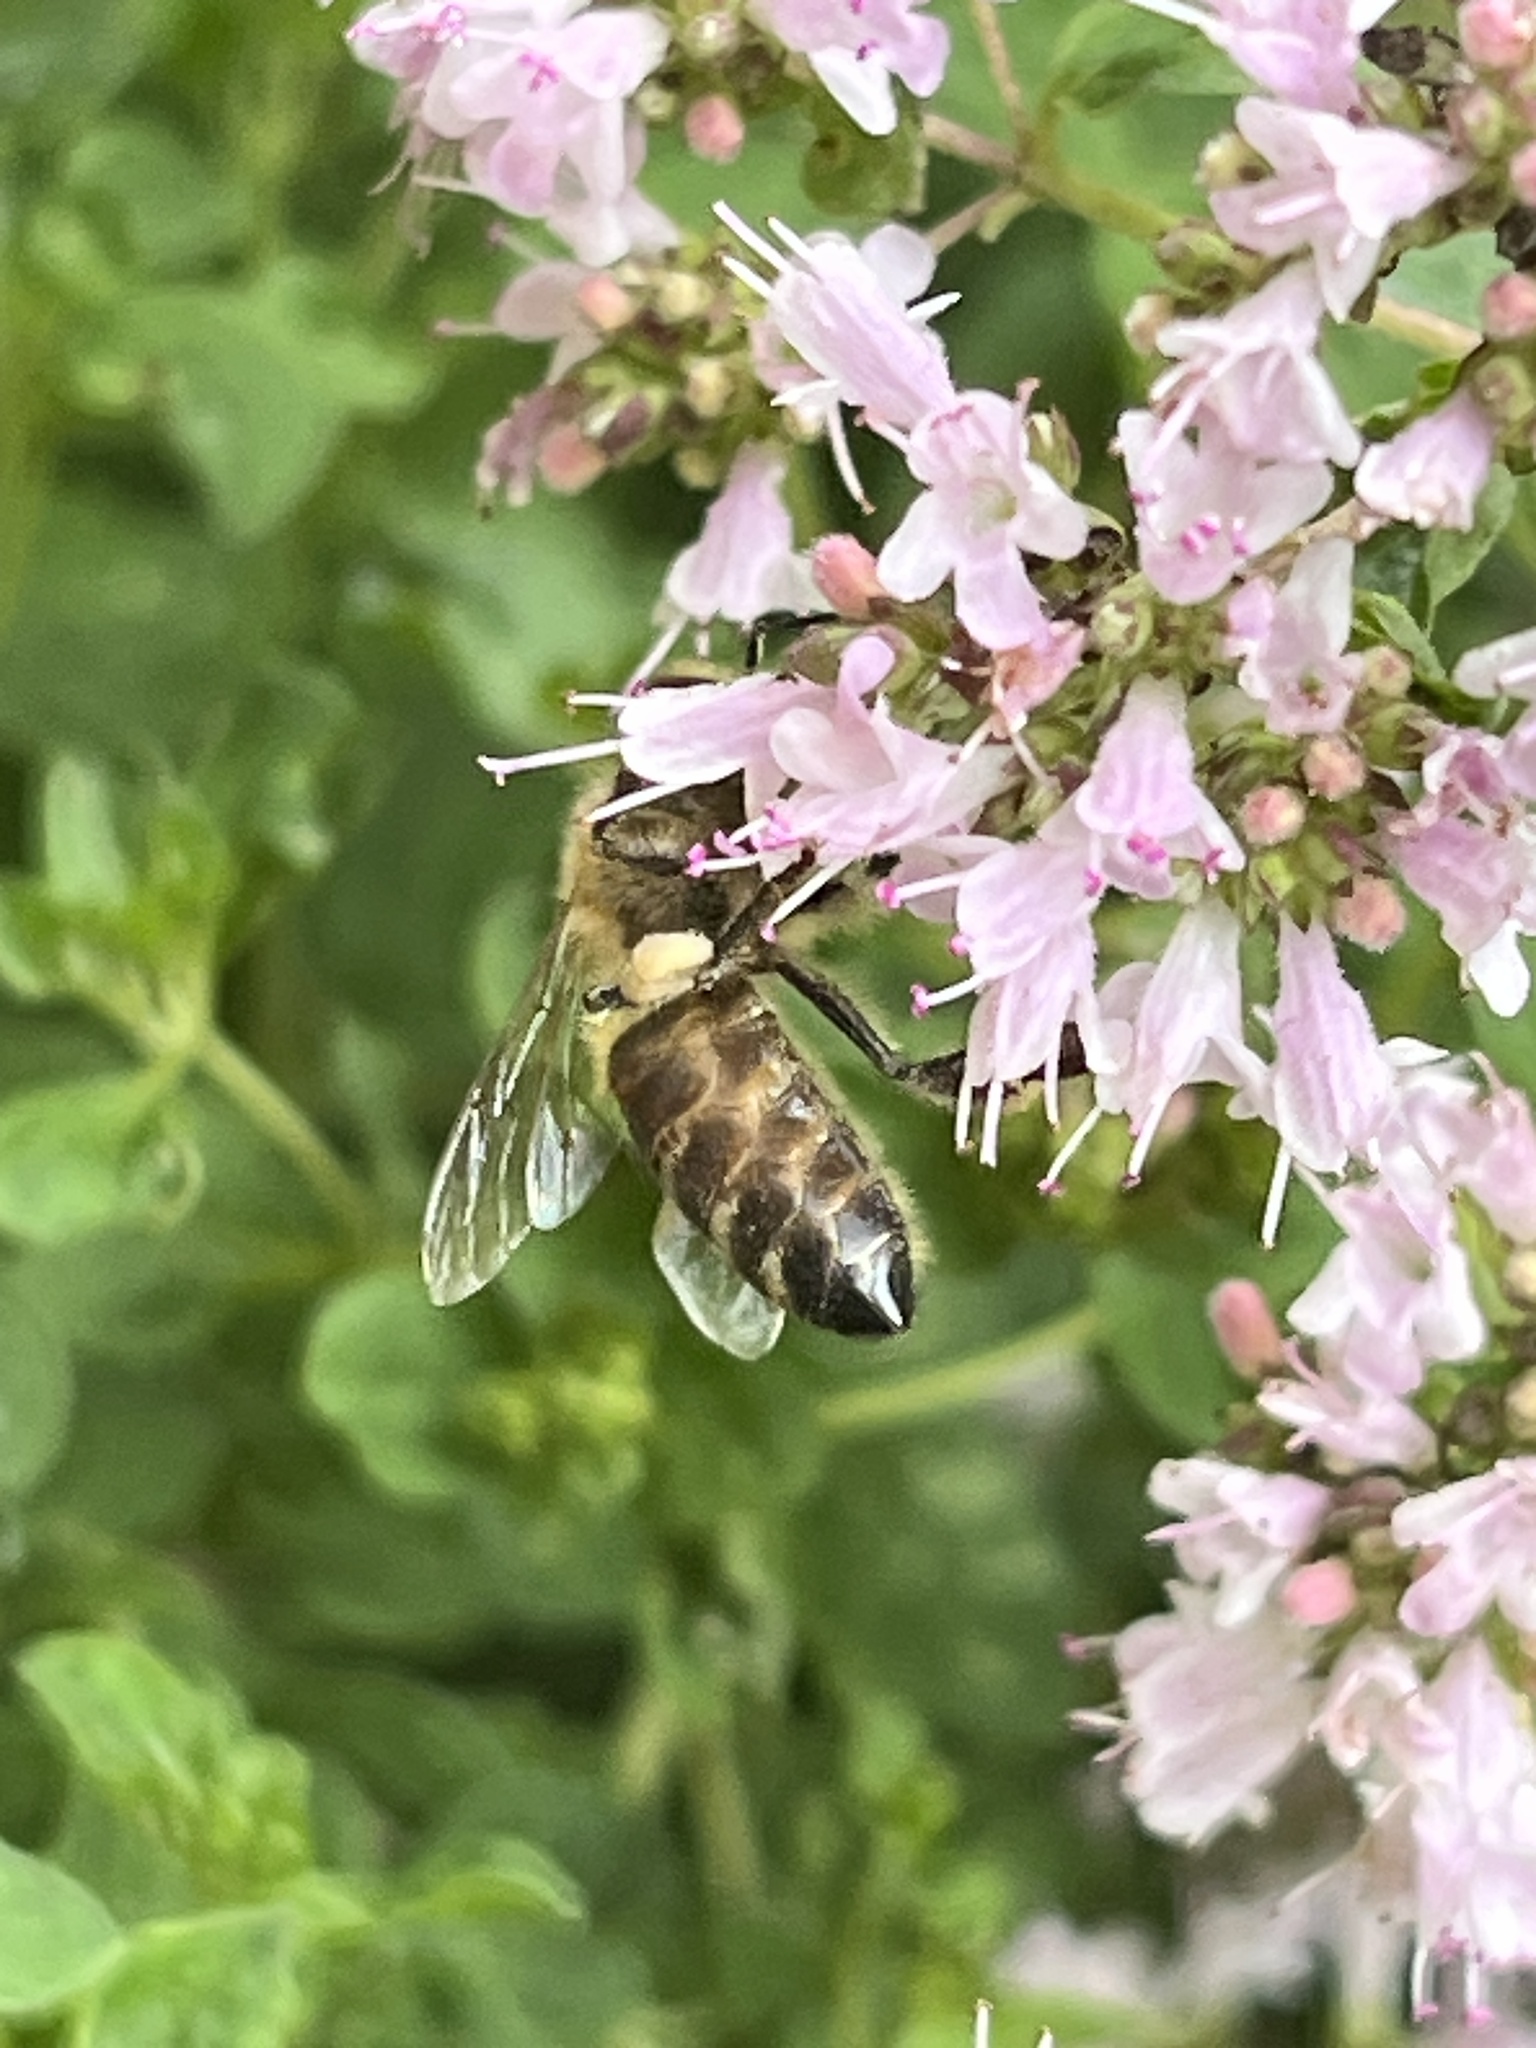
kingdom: Animalia
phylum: Arthropoda
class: Insecta
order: Hymenoptera
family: Apidae
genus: Apis
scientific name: Apis mellifera
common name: Honey bee
